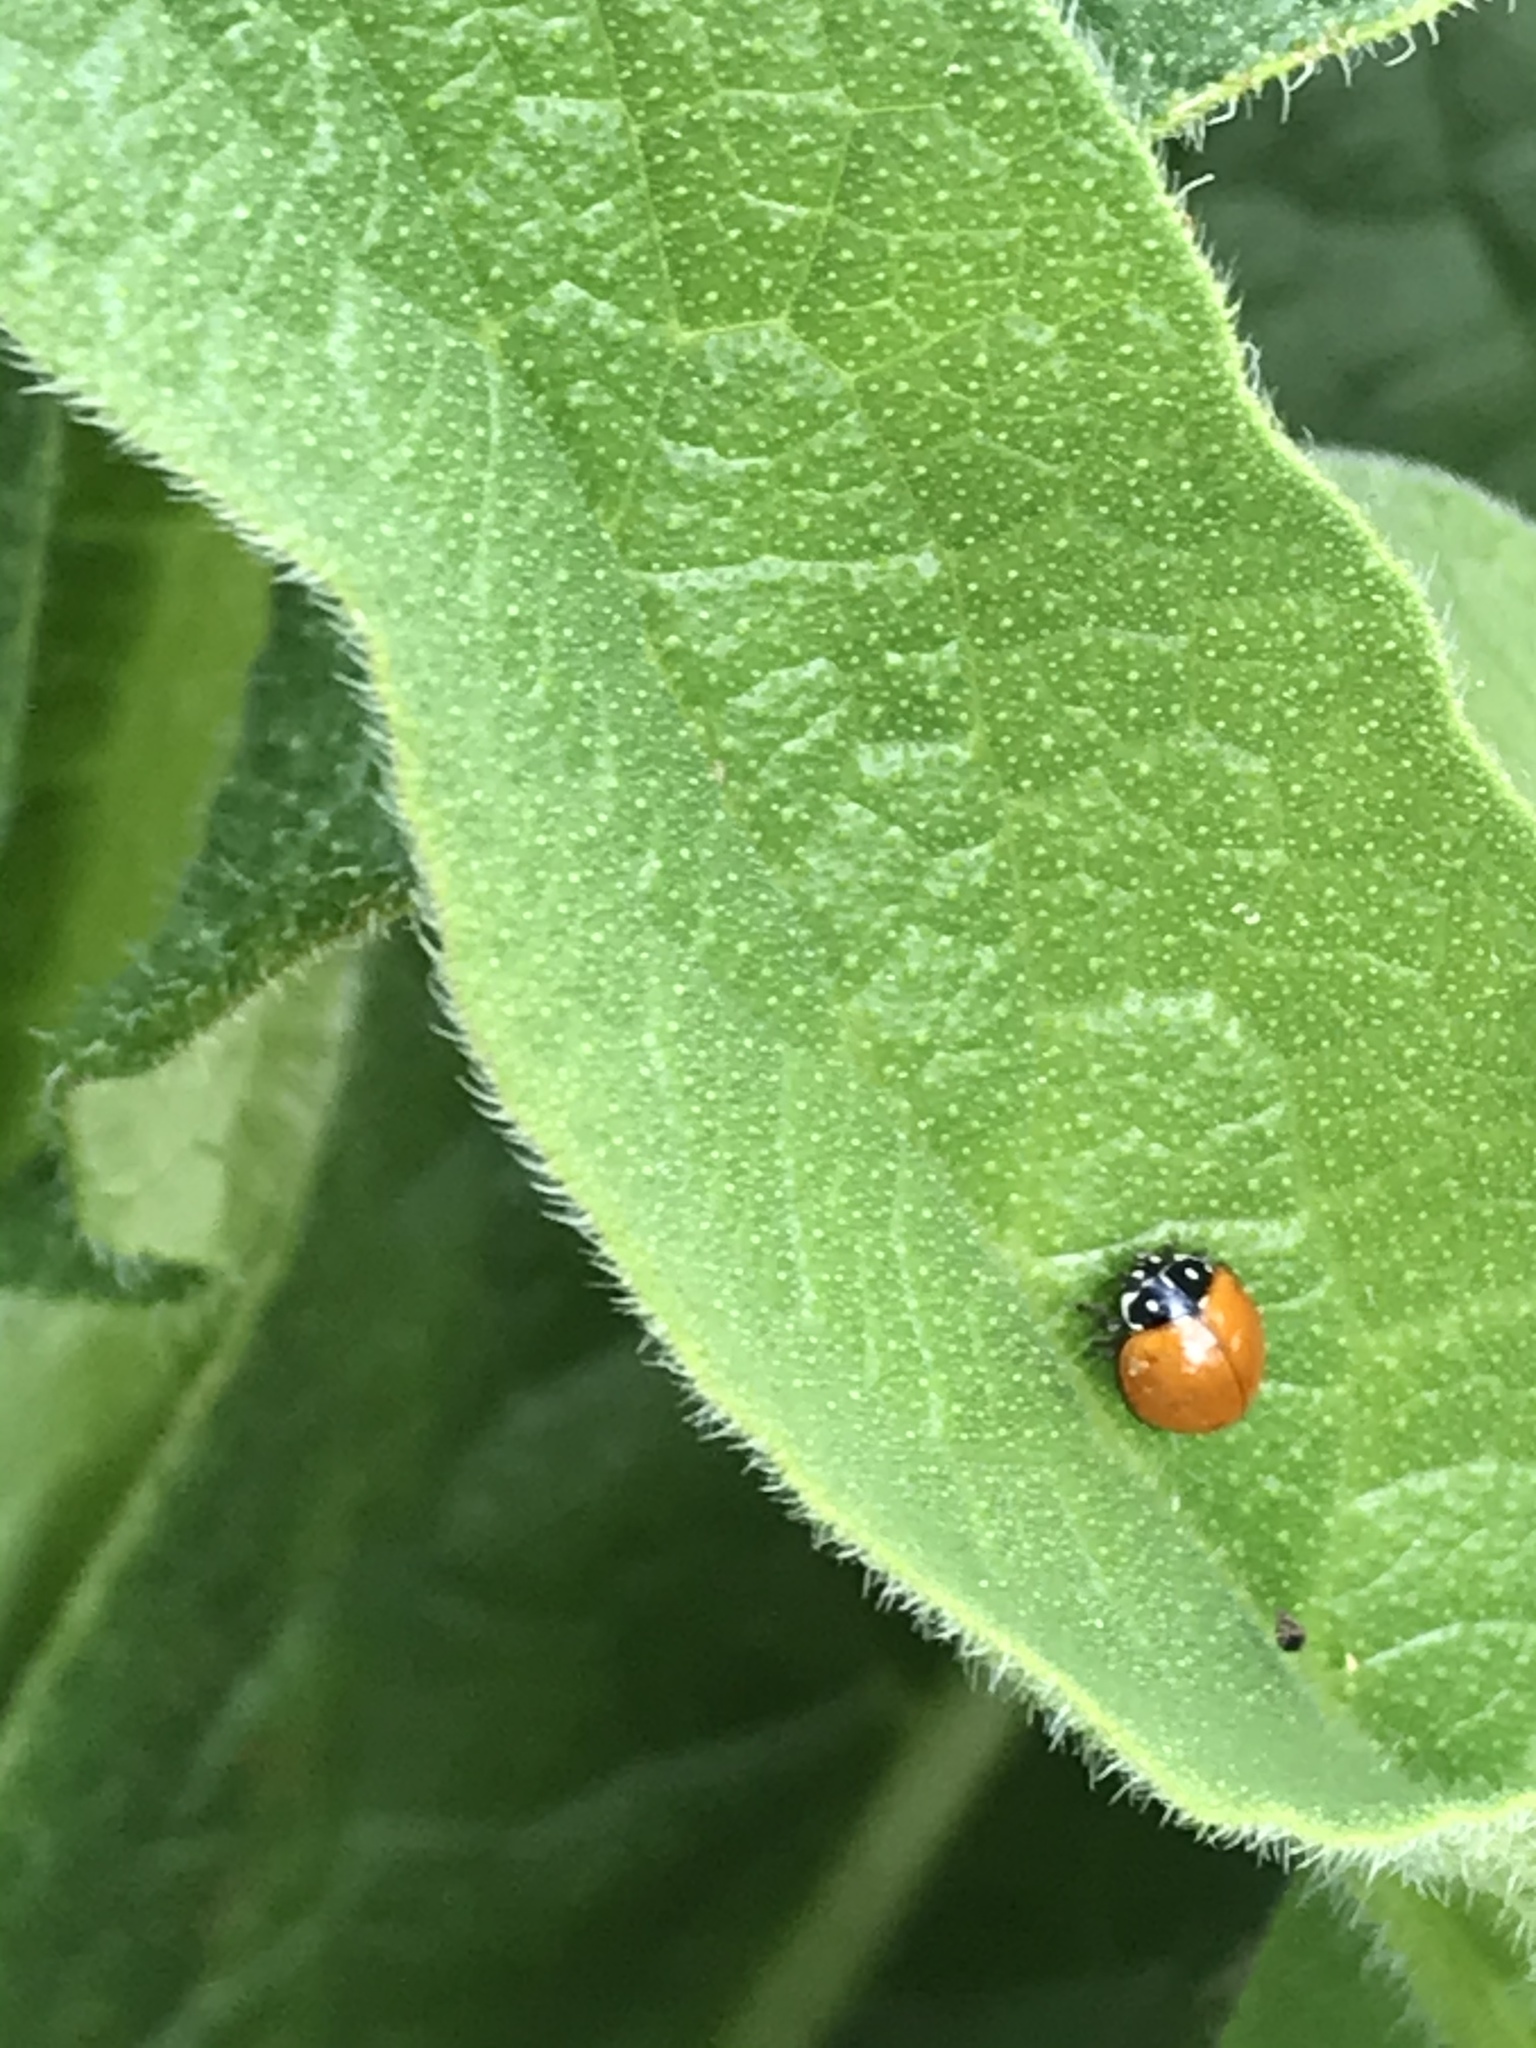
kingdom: Animalia
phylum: Arthropoda
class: Insecta
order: Coleoptera
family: Coccinellidae
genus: Cycloneda
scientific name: Cycloneda sanguinea
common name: Ladybird beetle
